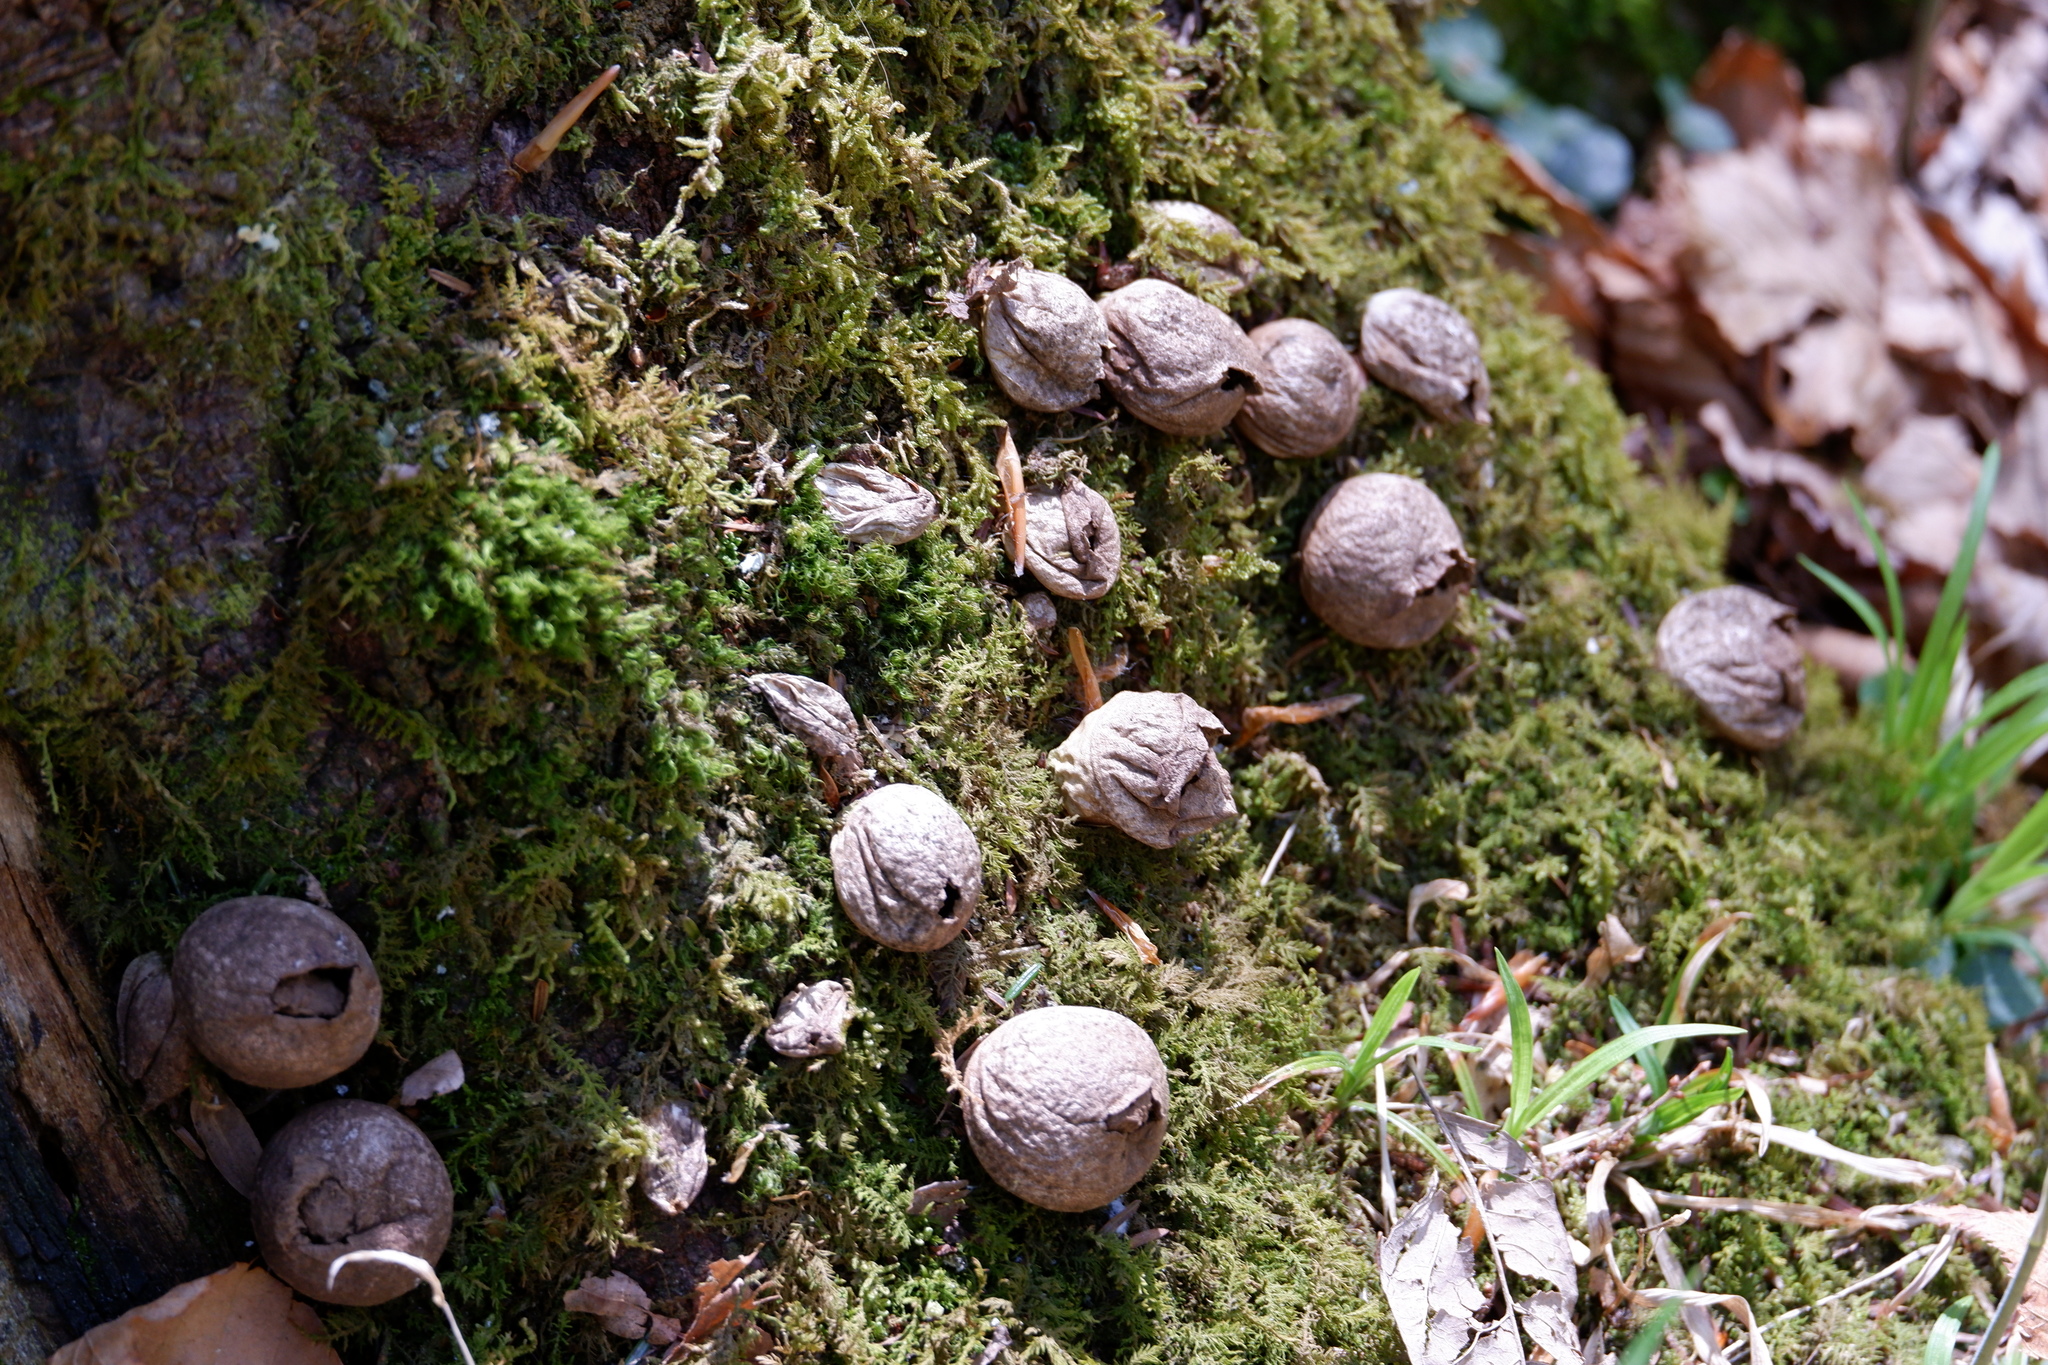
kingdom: Fungi
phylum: Basidiomycota
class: Agaricomycetes
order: Agaricales
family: Lycoperdaceae
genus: Apioperdon
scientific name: Apioperdon pyriforme
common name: Pear-shaped puffball
